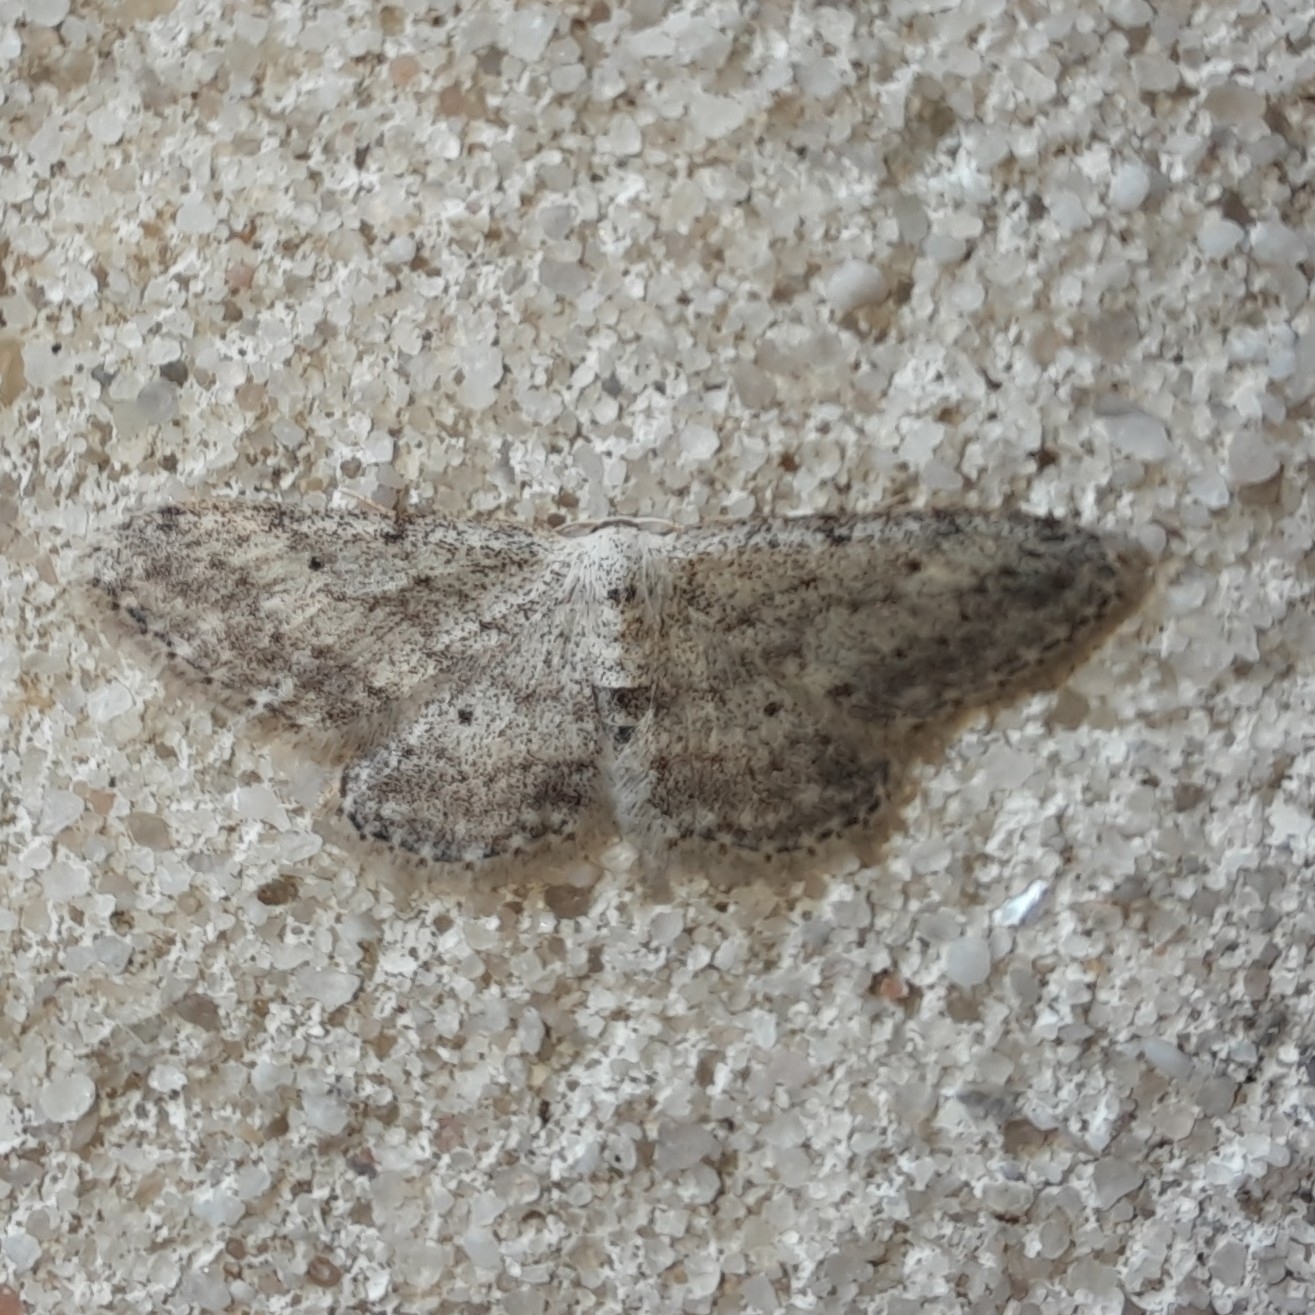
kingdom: Animalia
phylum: Arthropoda
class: Insecta
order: Lepidoptera
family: Geometridae
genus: Idaea
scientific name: Idaea seriata
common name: Small dusty wave
